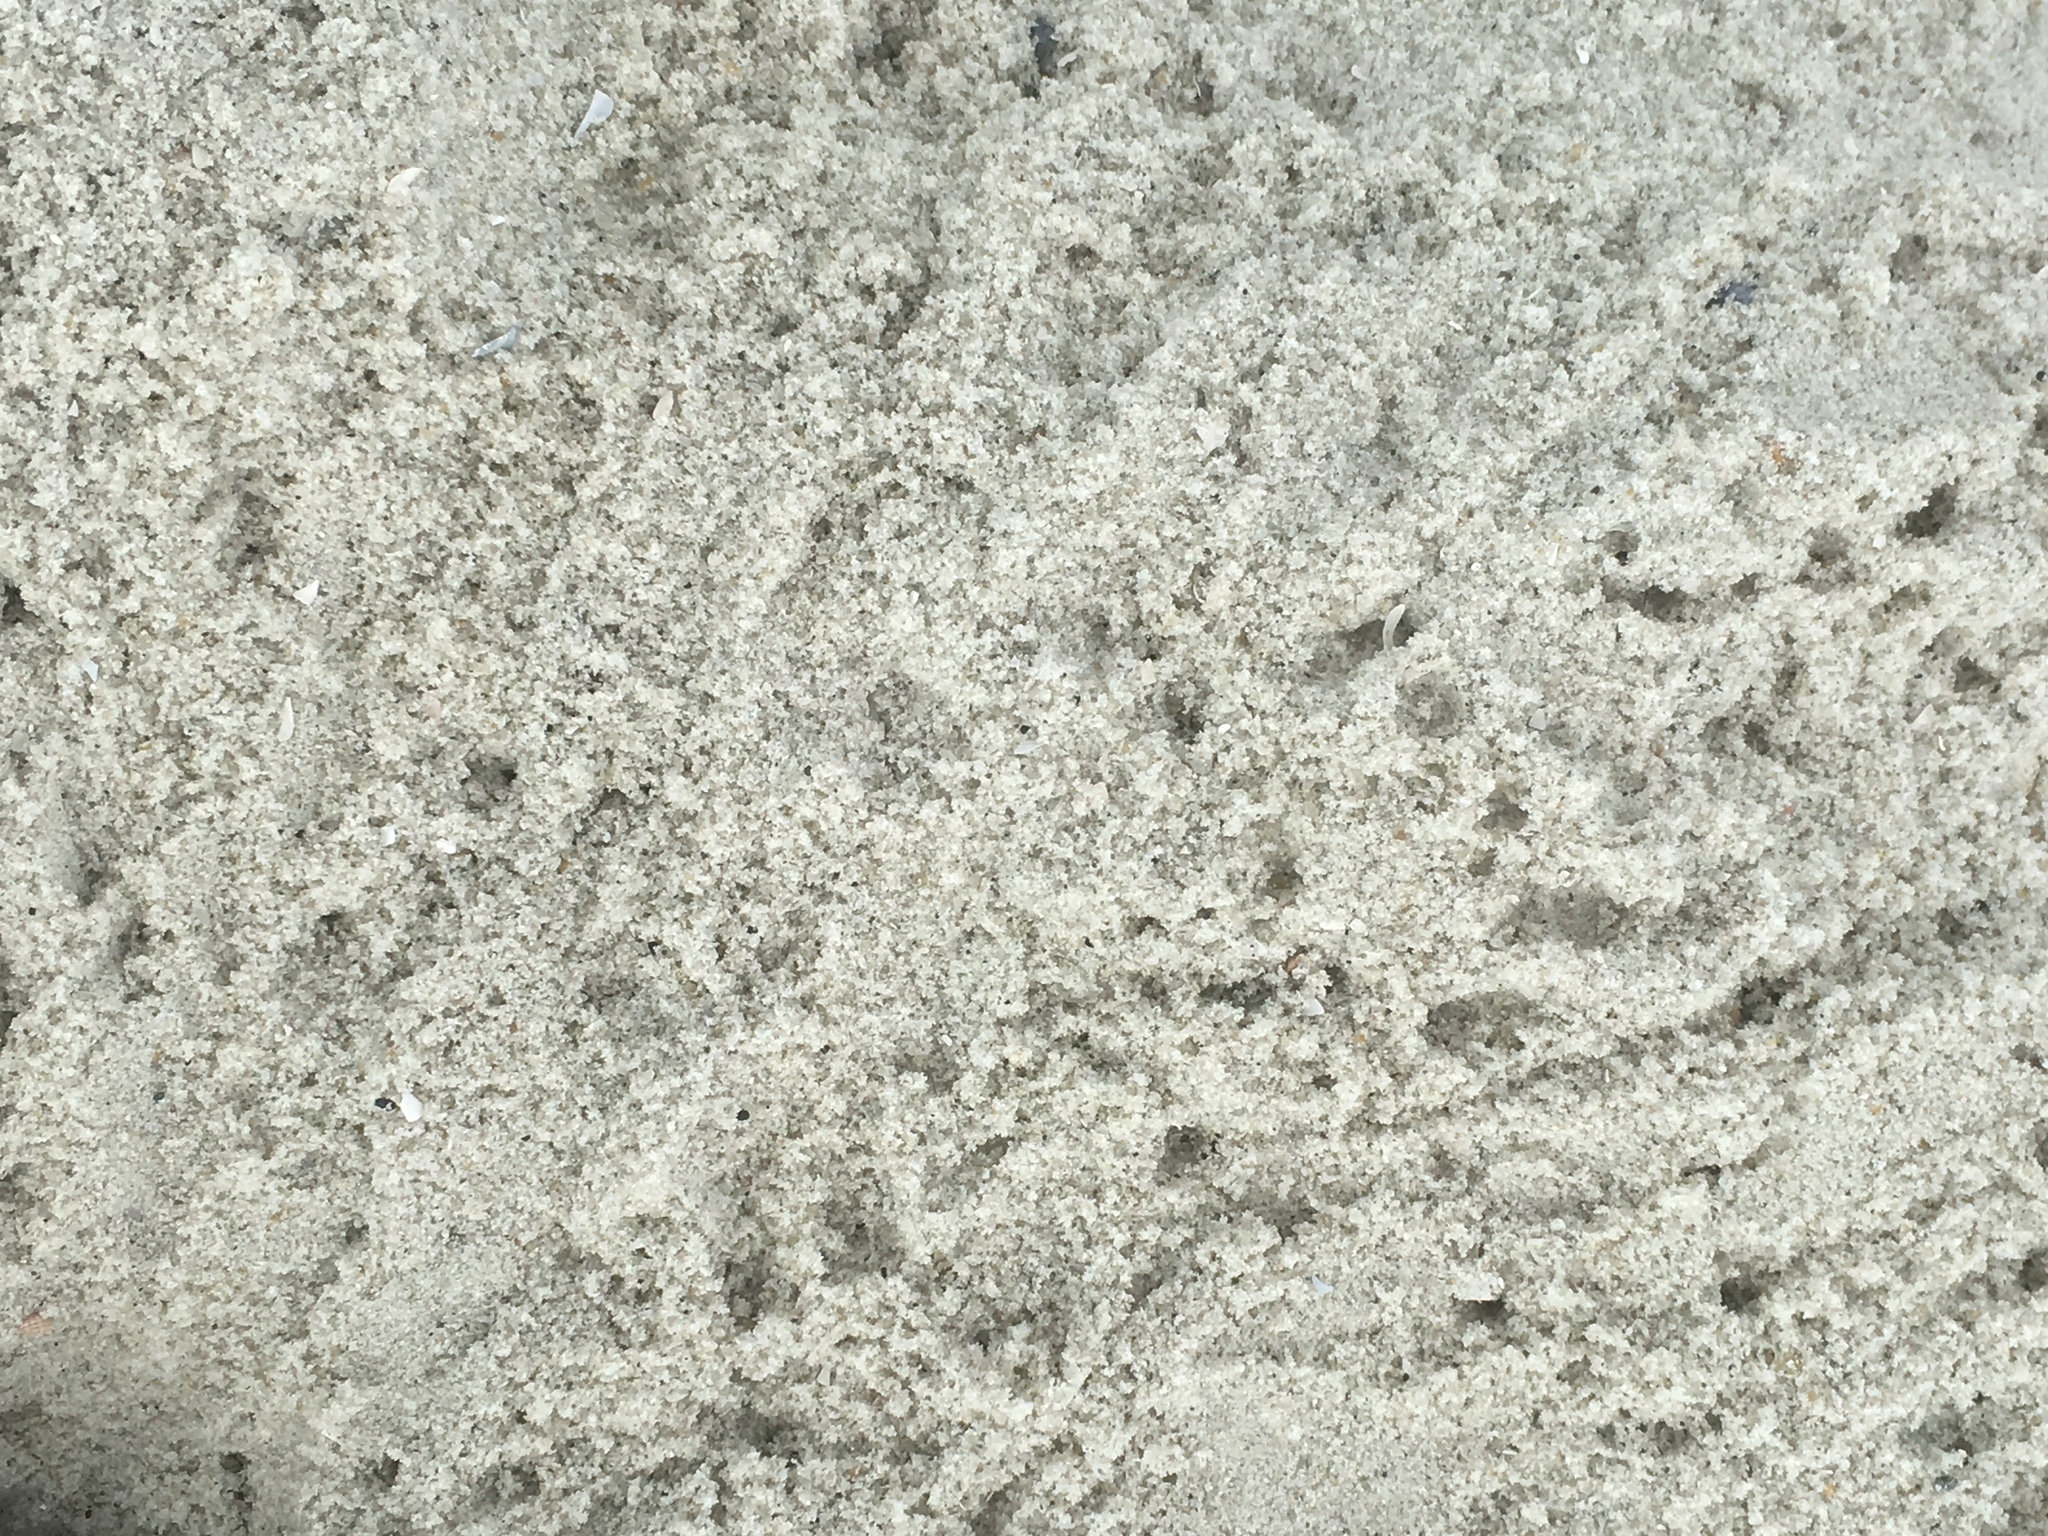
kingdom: Animalia
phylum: Arthropoda
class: Malacostraca
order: Decapoda
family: Ocypodidae
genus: Ocypode
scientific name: Ocypode quadrata
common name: Ghost crab
